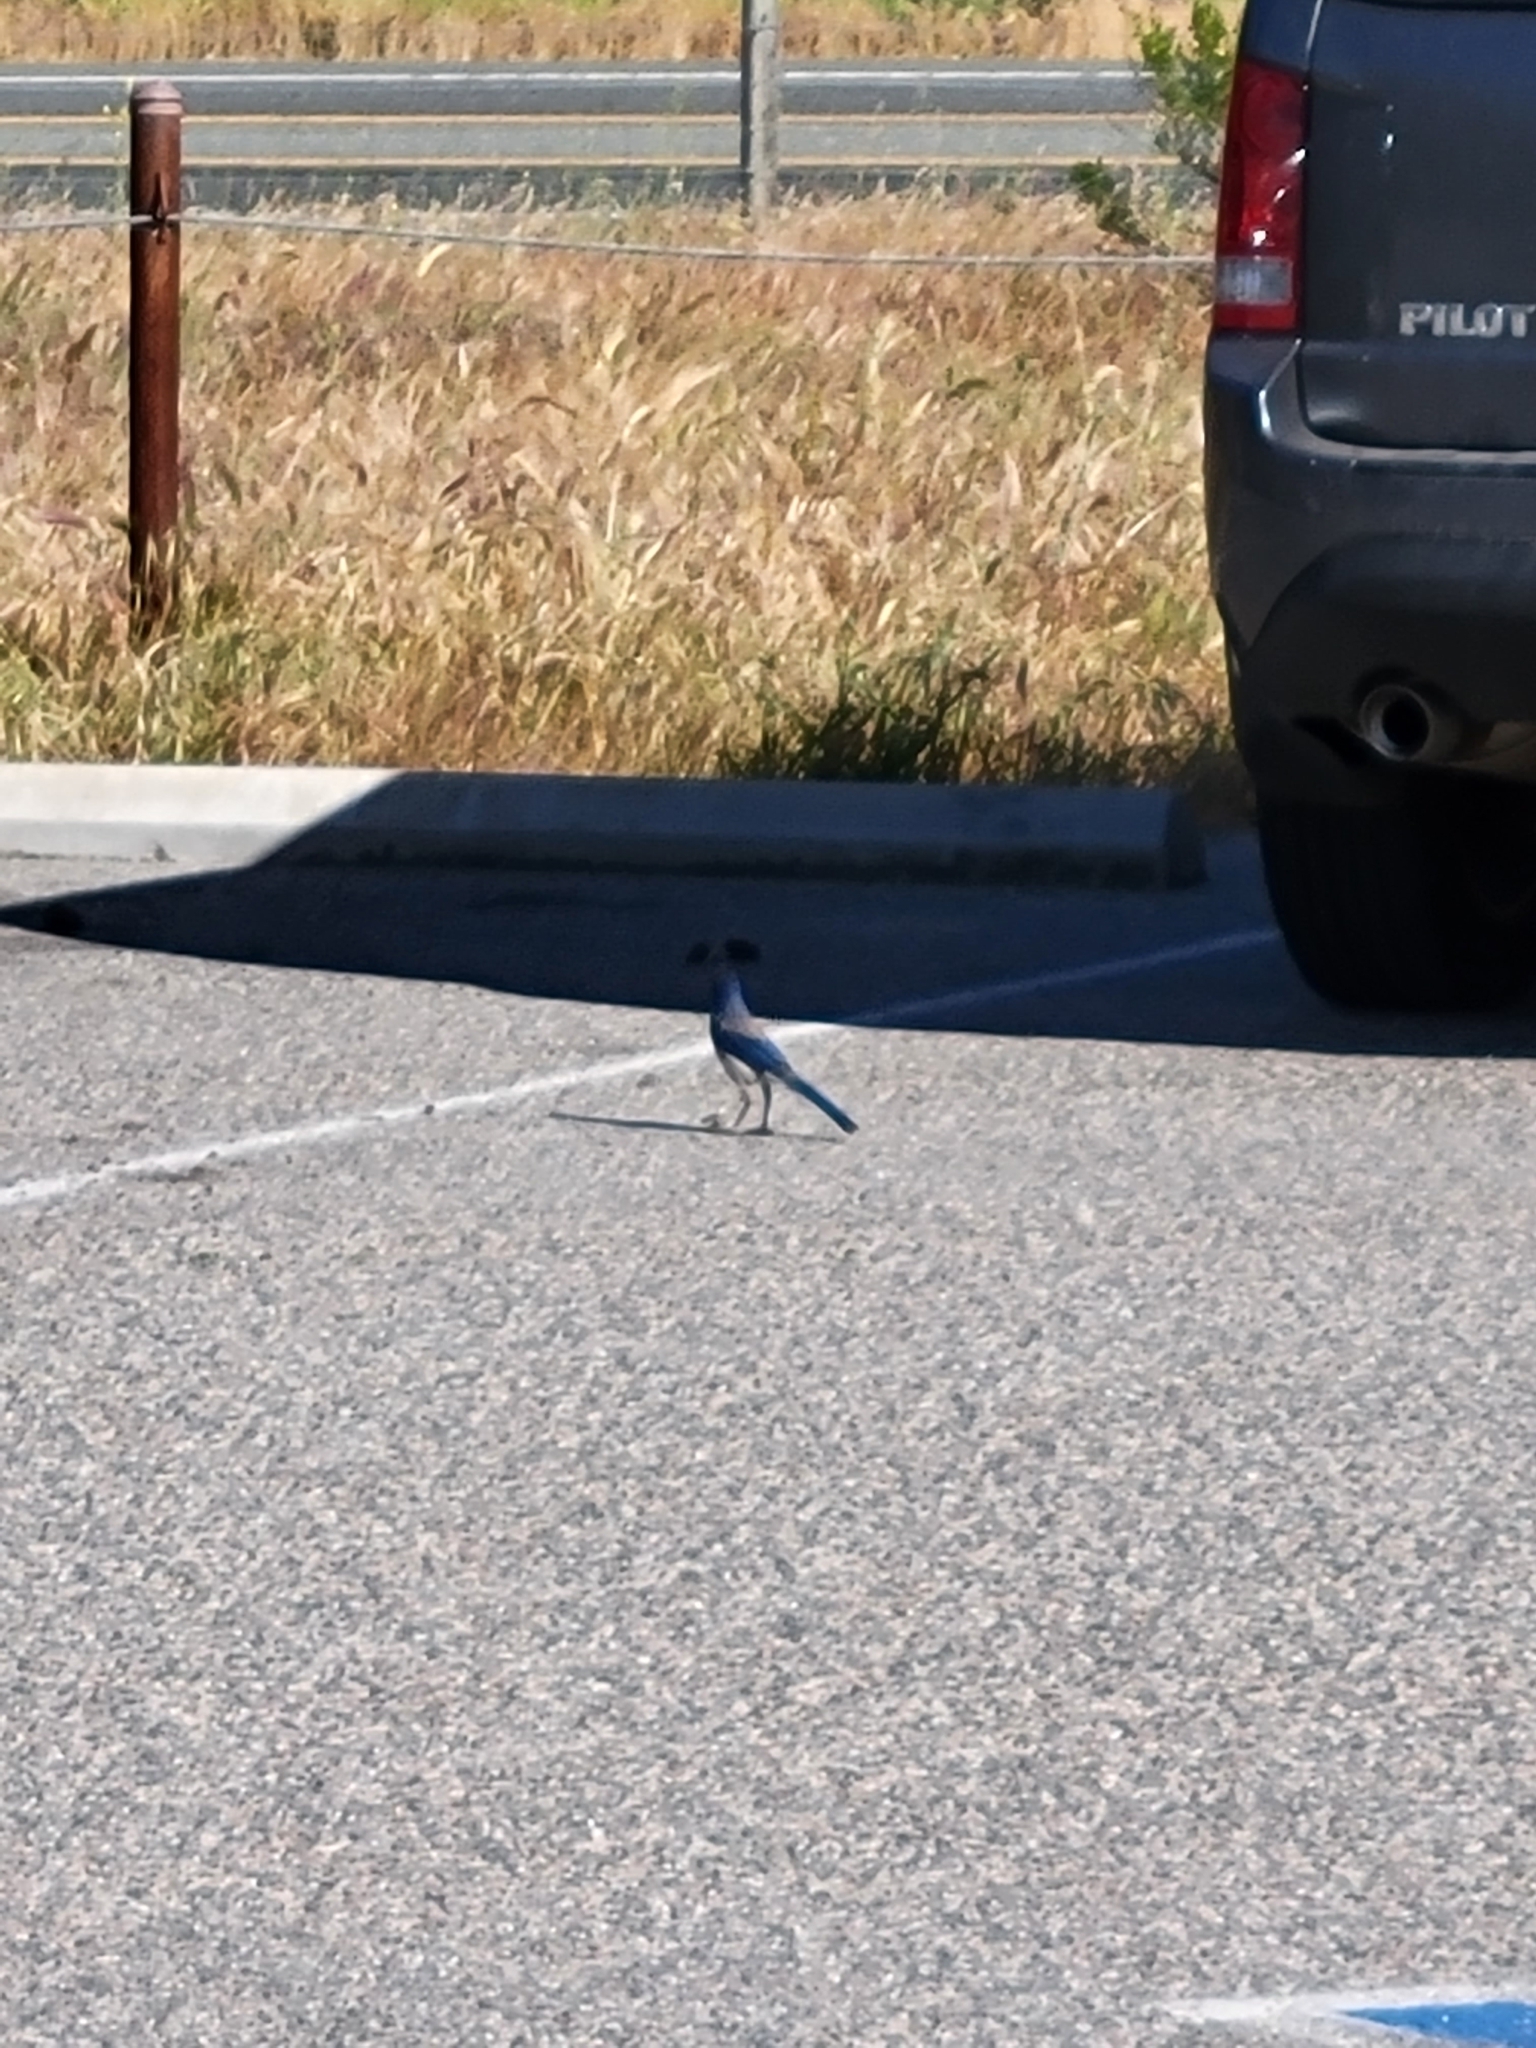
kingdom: Animalia
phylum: Chordata
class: Aves
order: Passeriformes
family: Corvidae
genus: Aphelocoma
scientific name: Aphelocoma californica
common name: California scrub-jay
